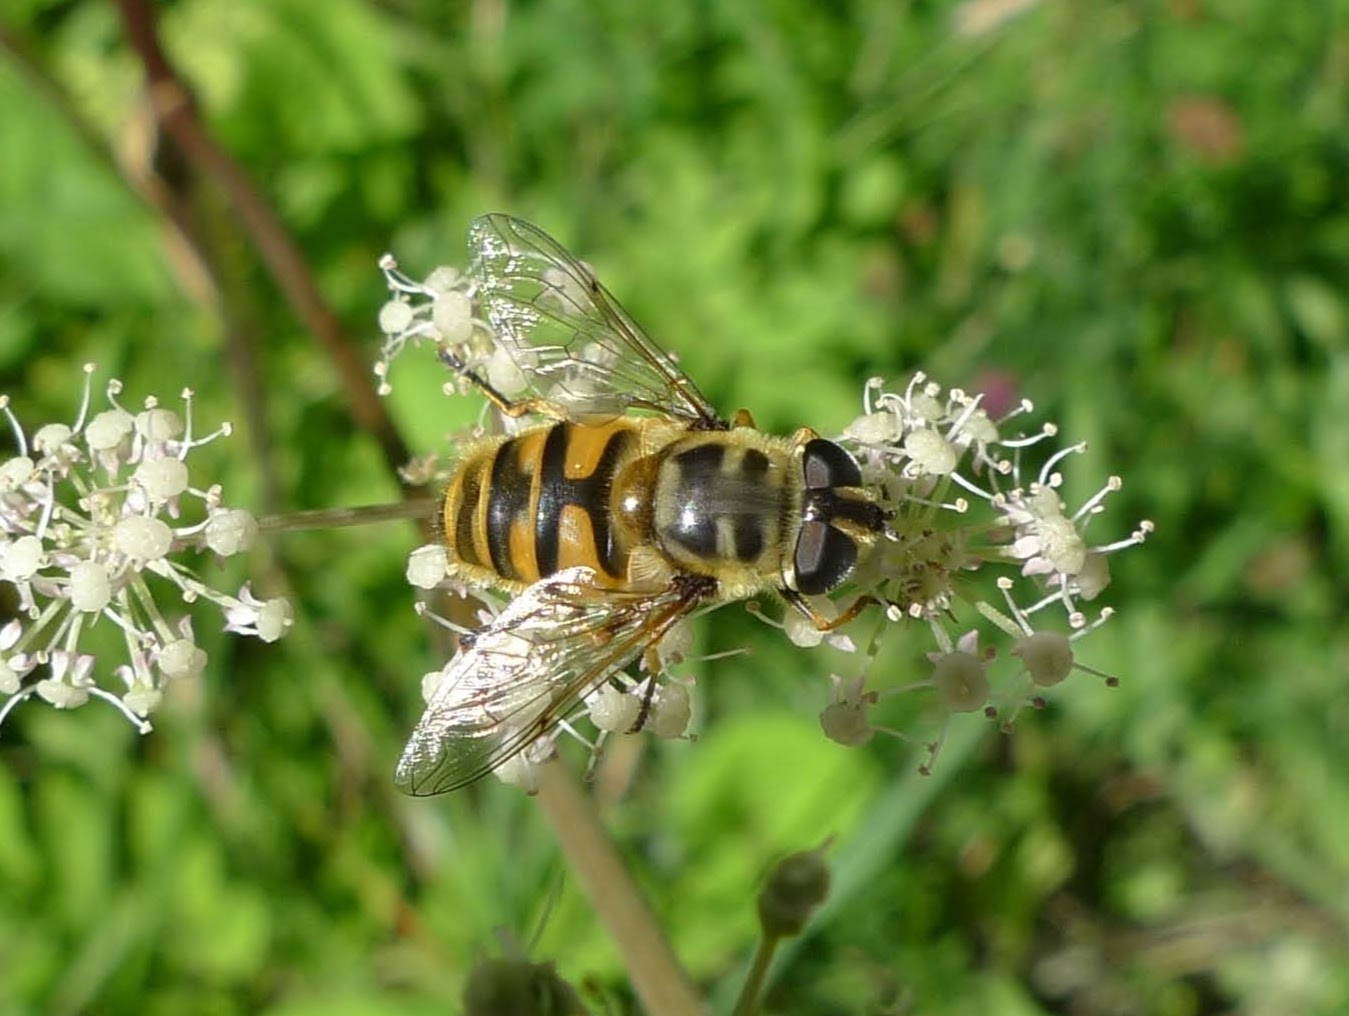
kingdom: Animalia
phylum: Arthropoda
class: Insecta
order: Diptera
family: Syrphidae
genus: Myathropa
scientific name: Myathropa florea
